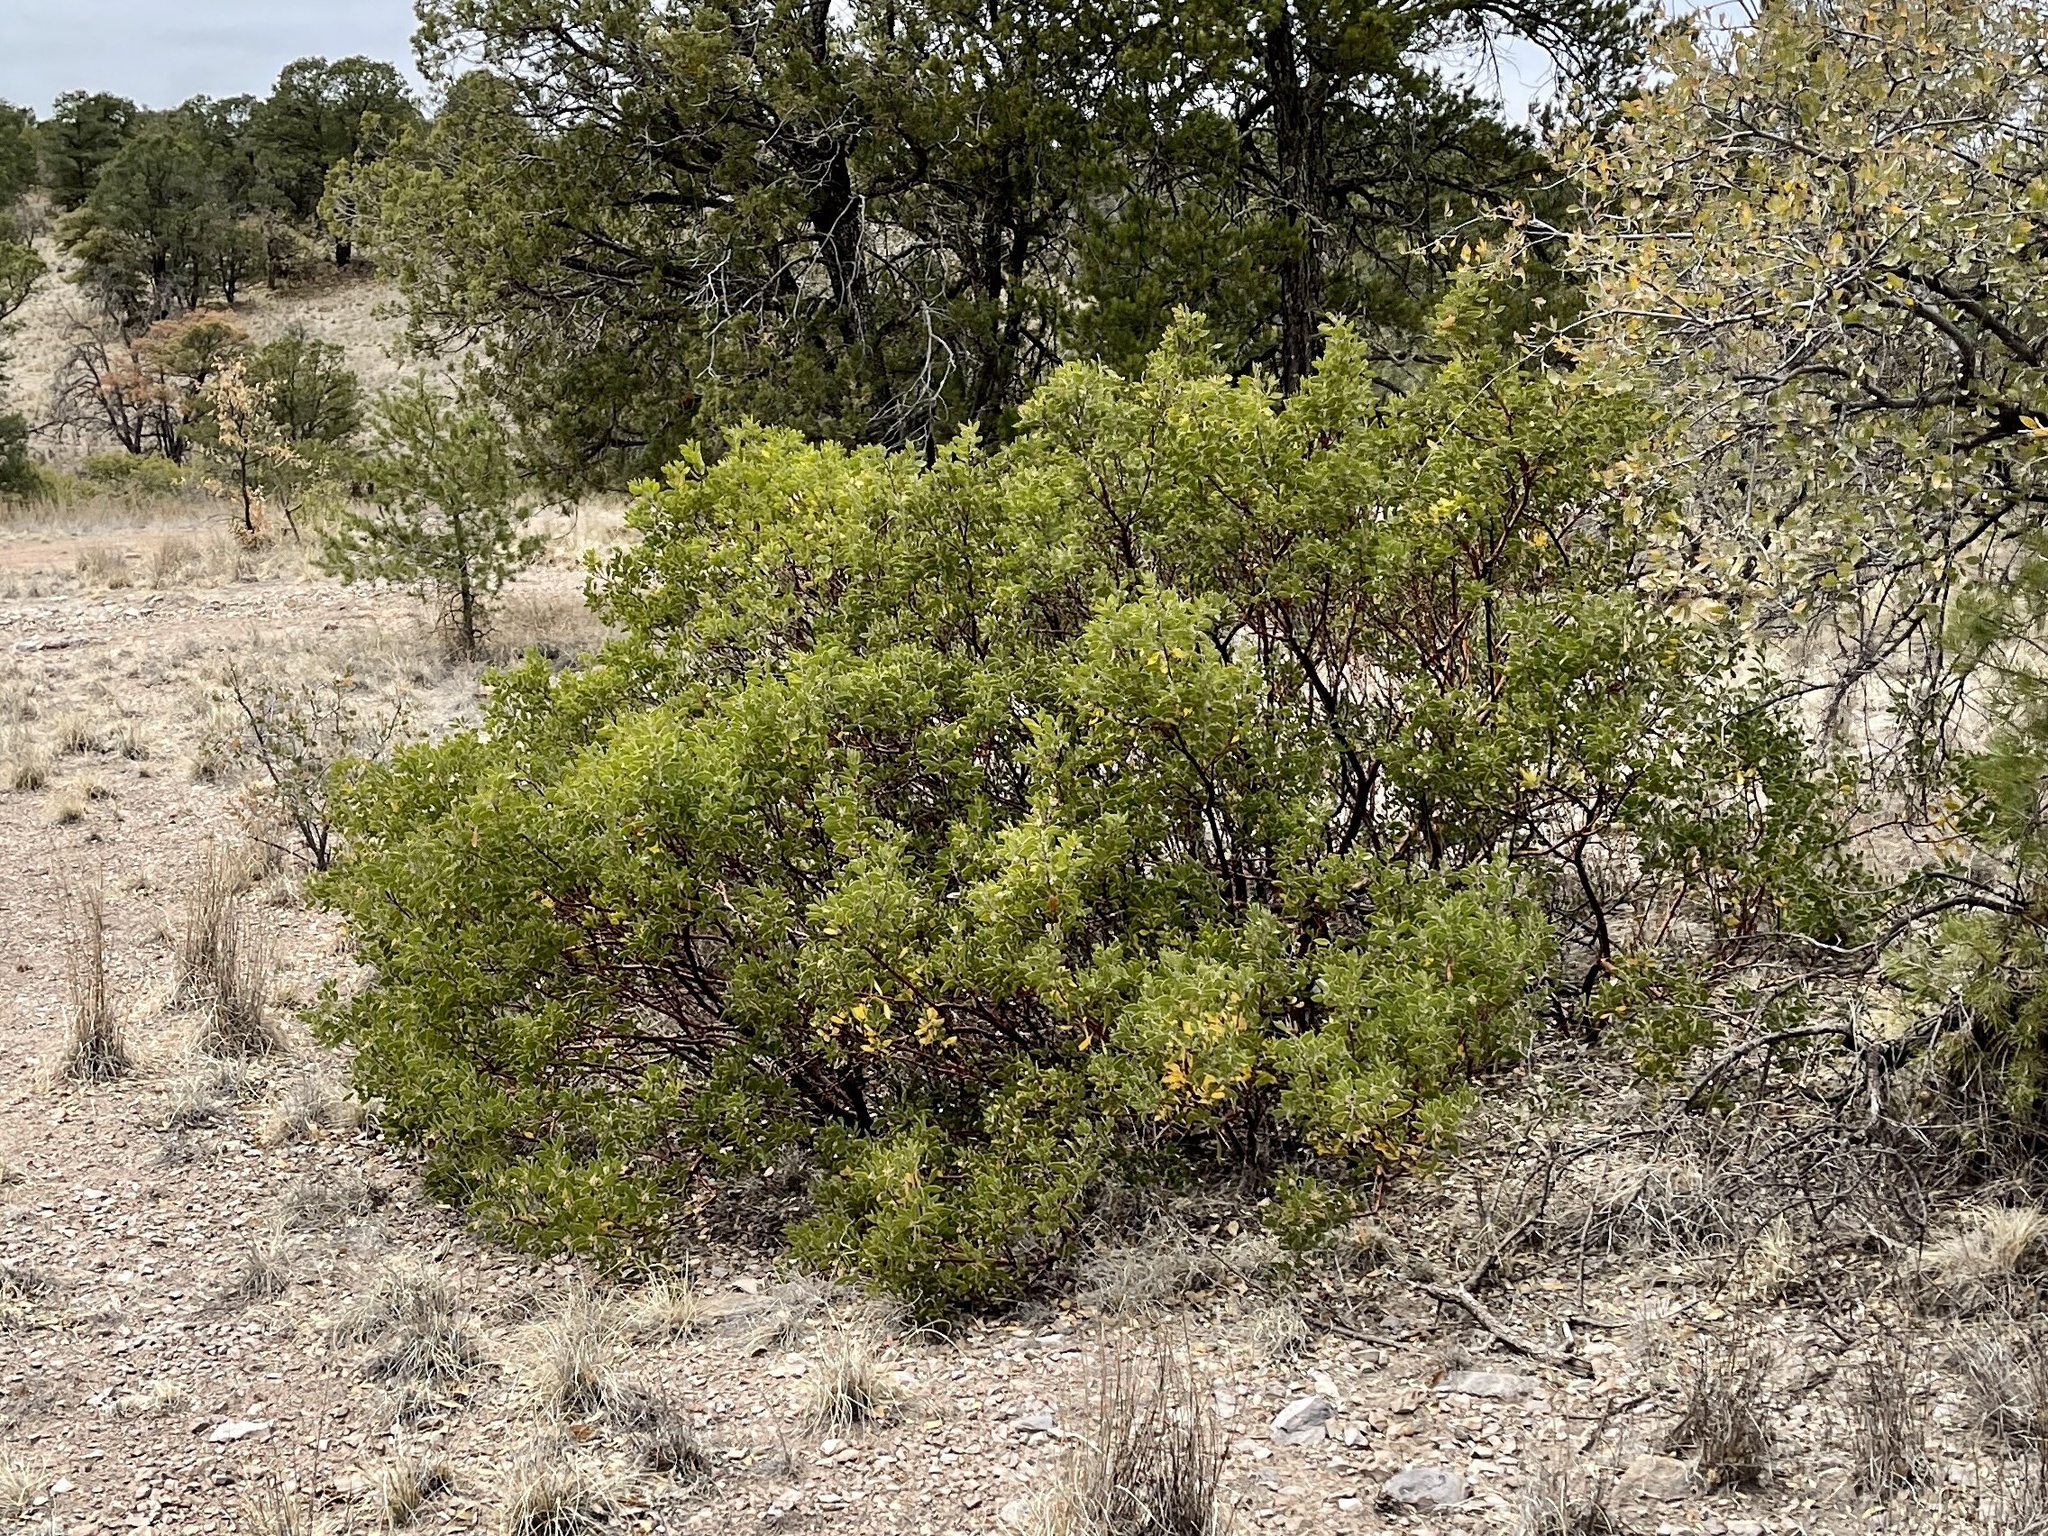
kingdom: Plantae
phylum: Tracheophyta
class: Magnoliopsida
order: Ericales
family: Ericaceae
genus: Arctostaphylos
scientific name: Arctostaphylos pungens
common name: Mexican manzanita
